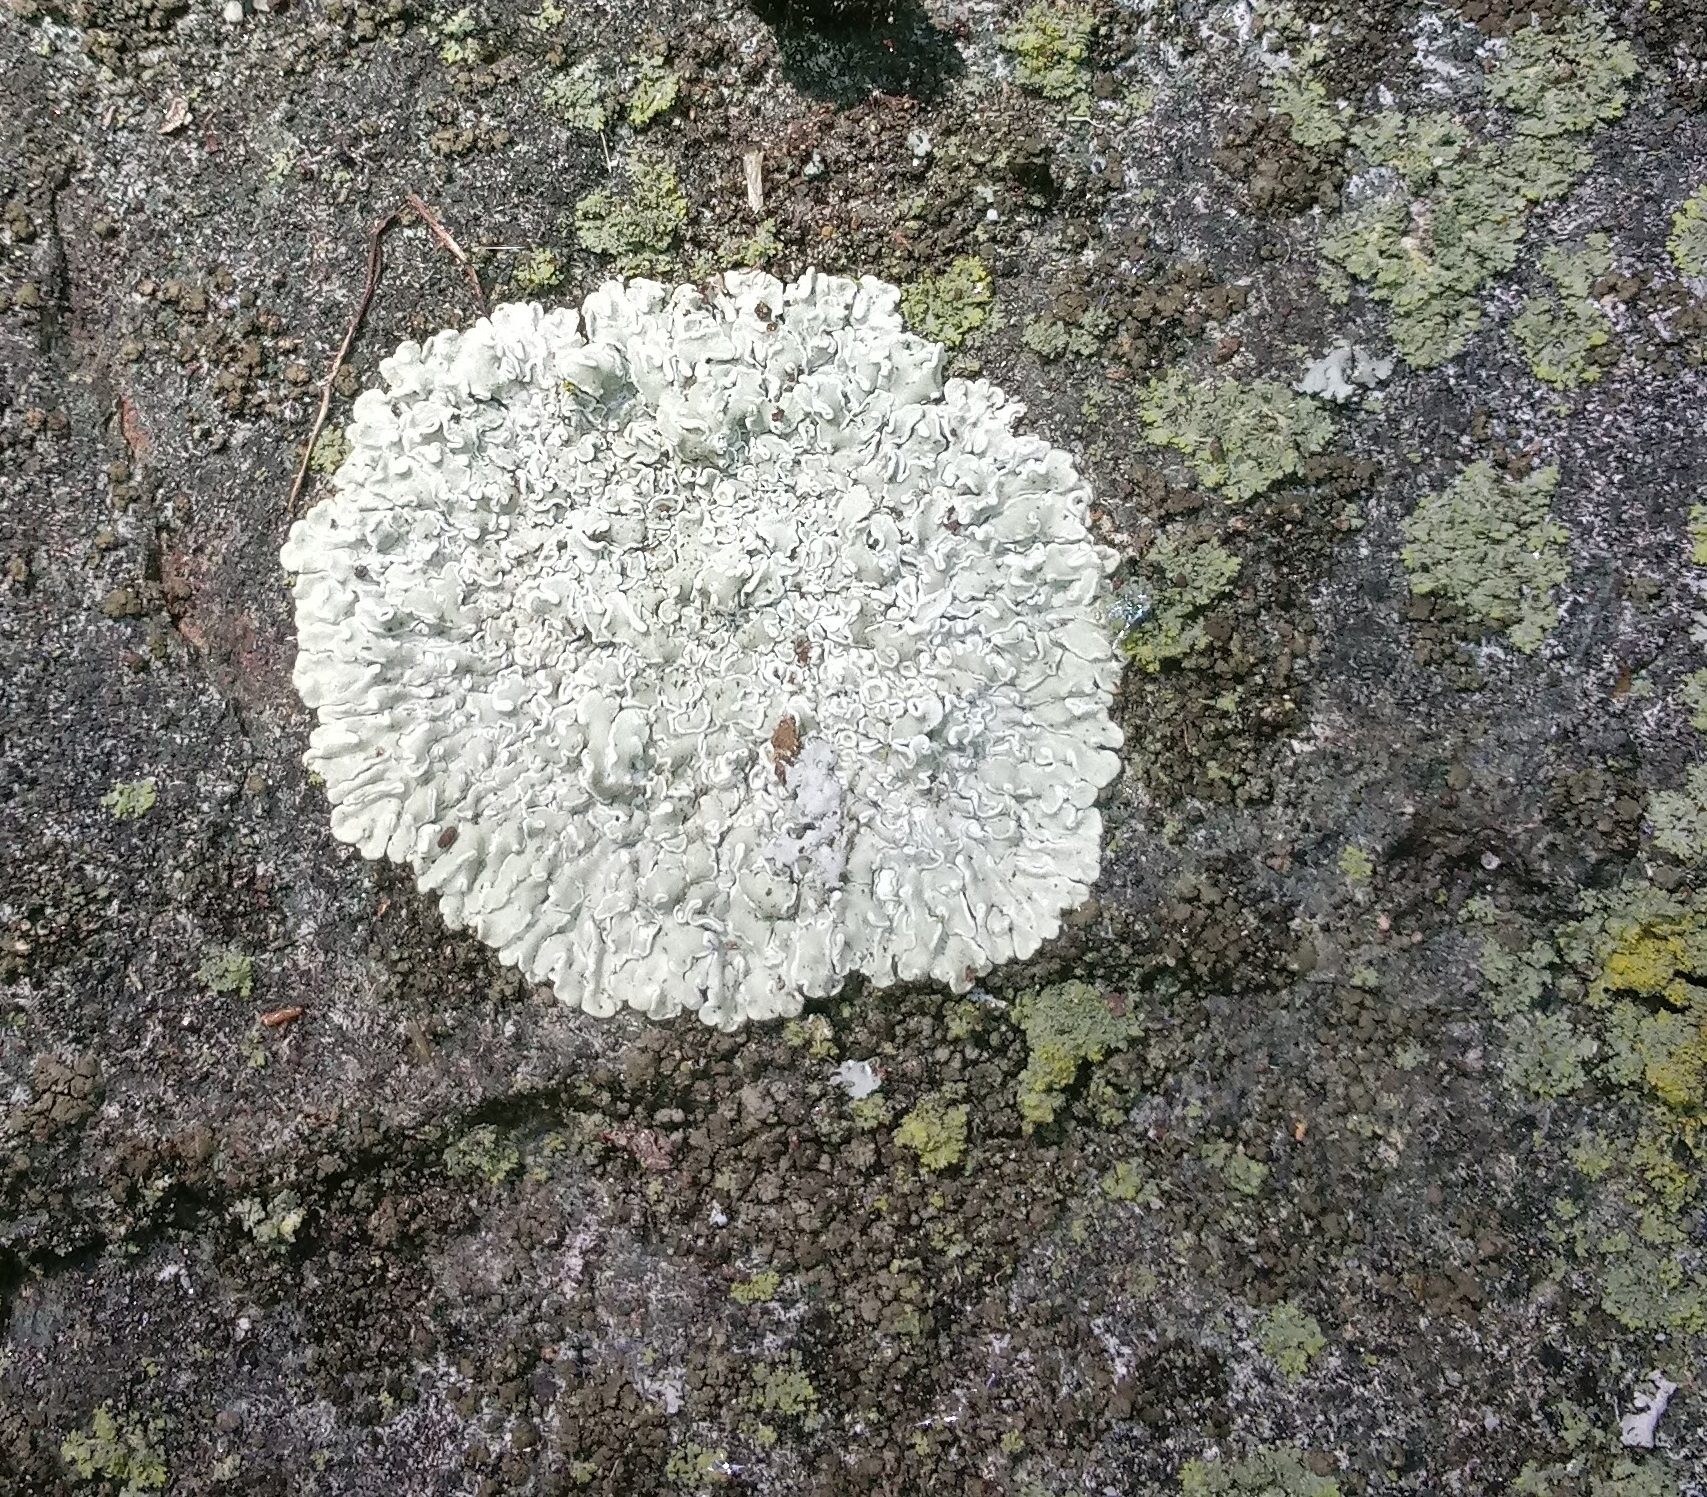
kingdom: Fungi
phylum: Ascomycota
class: Lecanoromycetes
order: Lecanorales
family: Lecanoraceae
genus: Protoparmeliopsis
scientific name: Protoparmeliopsis muralis
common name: Stonewall rim lichen
